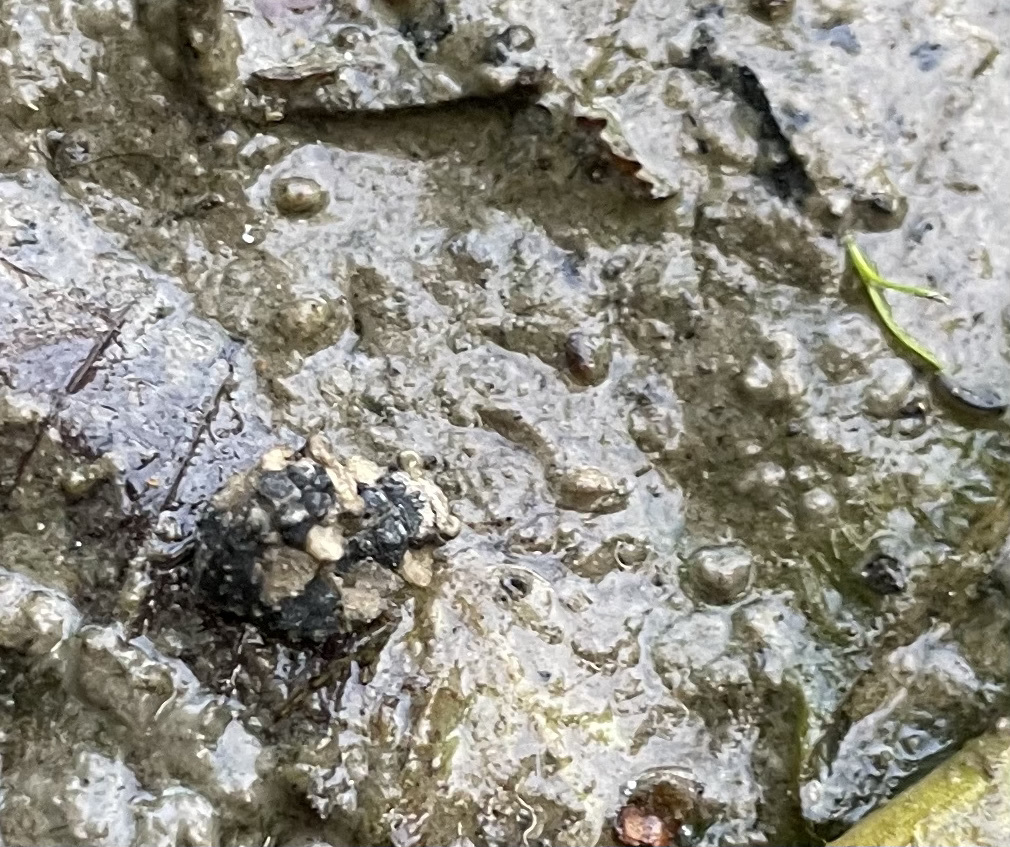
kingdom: Animalia
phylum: Arthropoda
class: Insecta
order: Hemiptera
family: Gelastocoridae
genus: Gelastocoris
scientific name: Gelastocoris oculatus
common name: Toad bug
